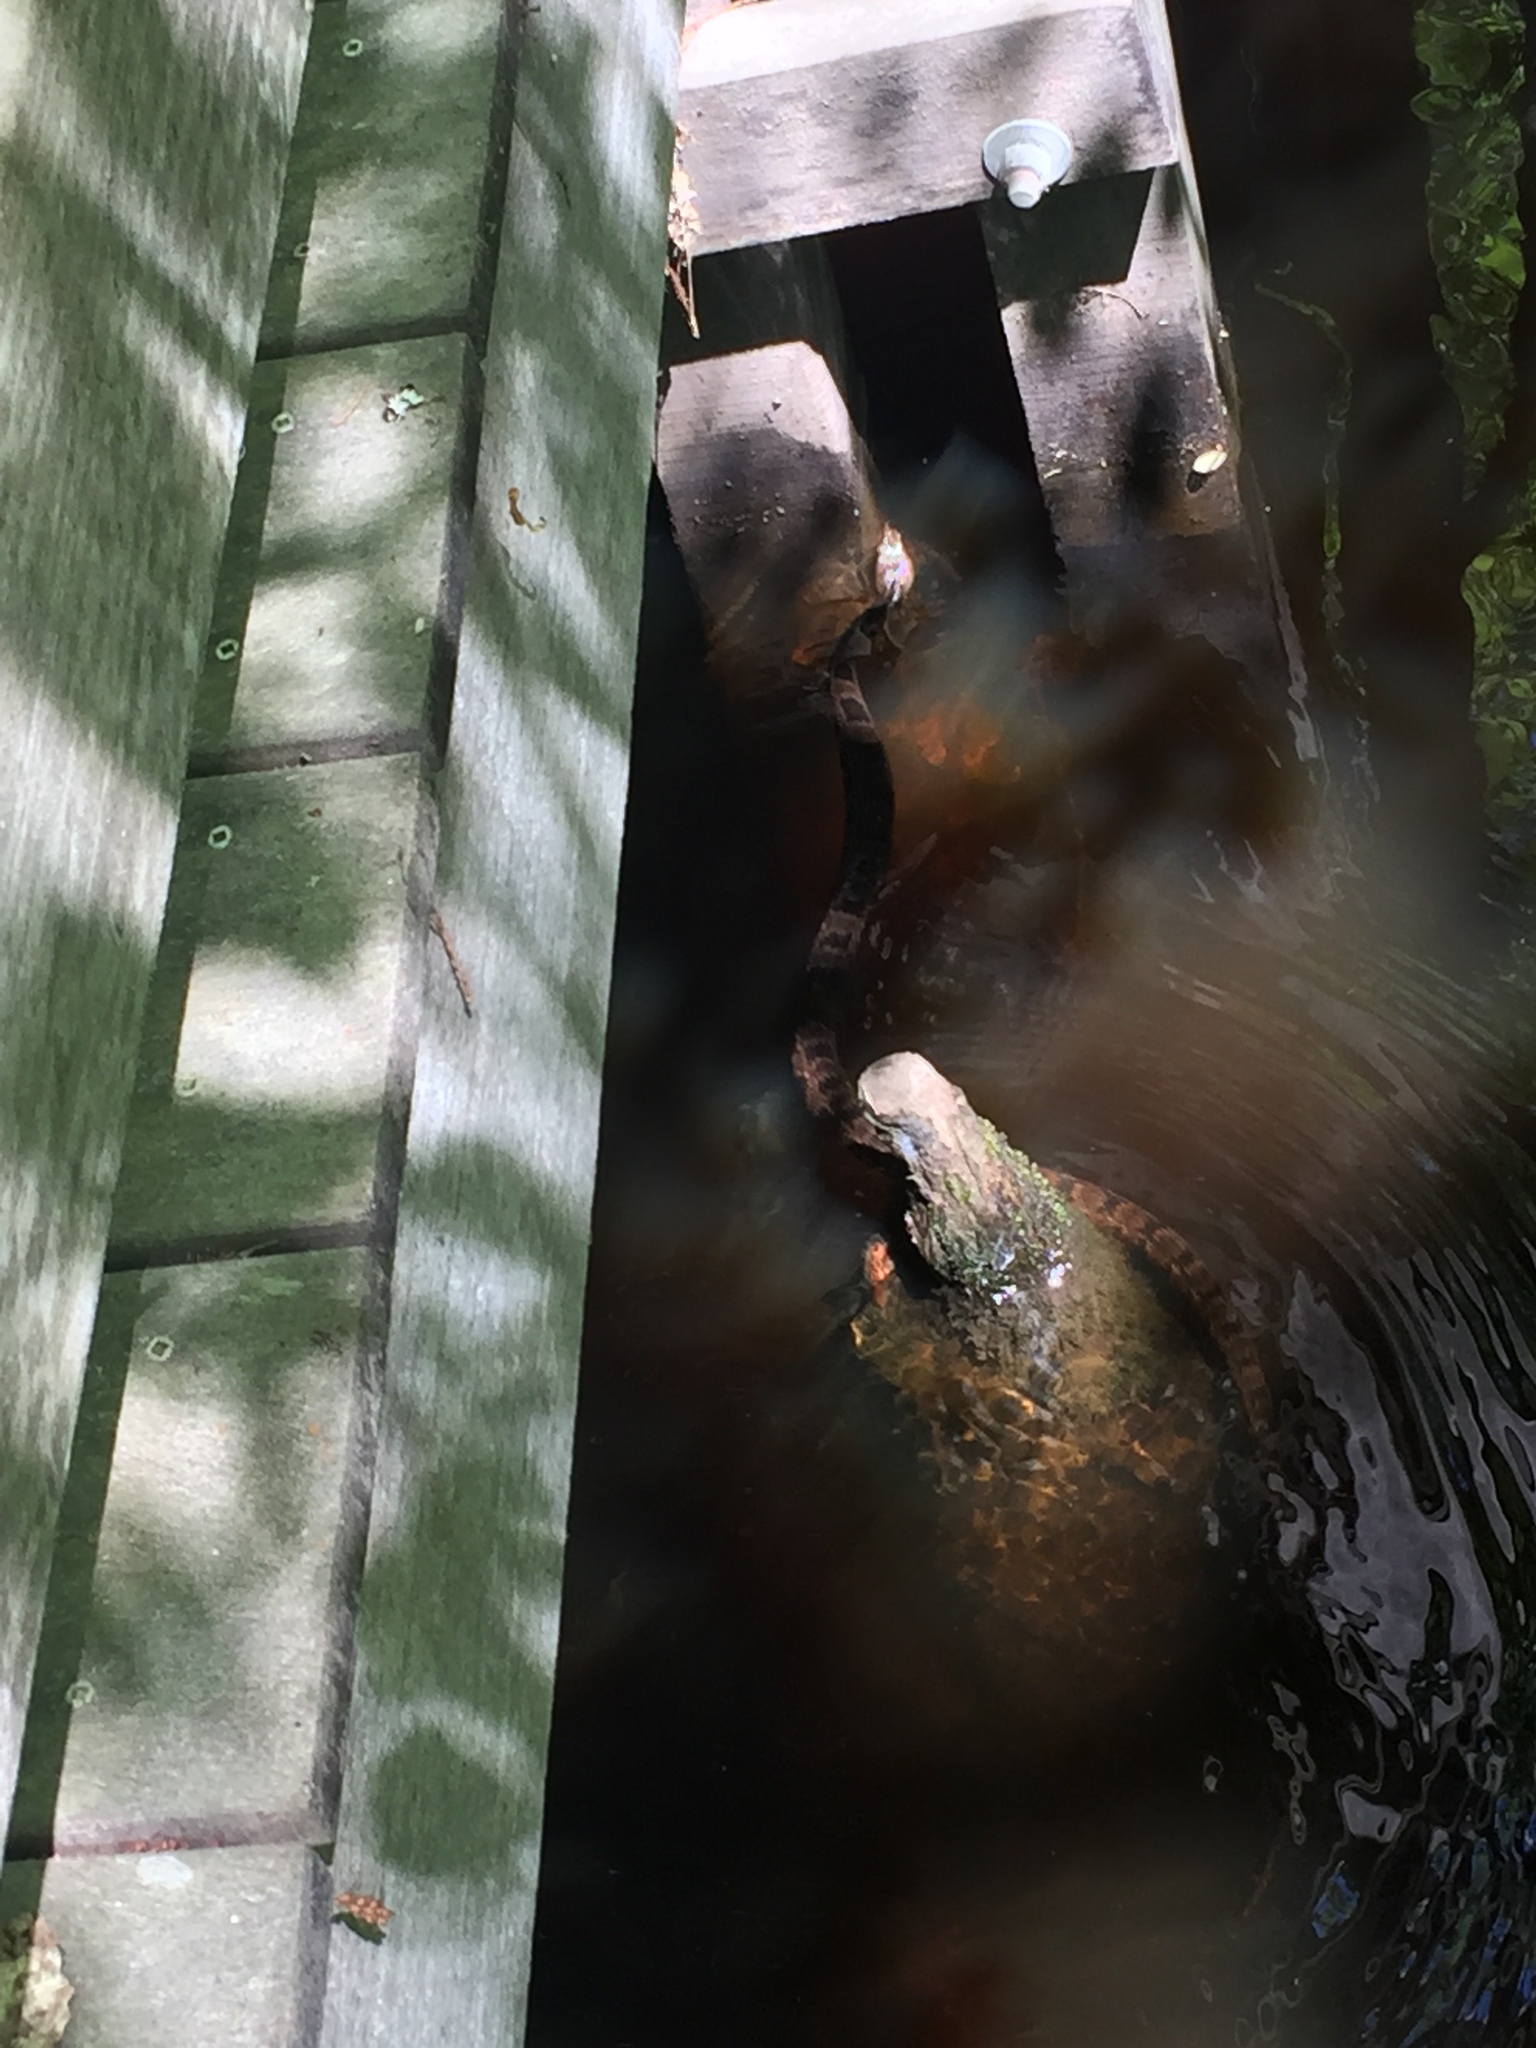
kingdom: Animalia
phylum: Chordata
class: Squamata
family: Colubridae
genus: Nerodia
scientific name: Nerodia taxispilota
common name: Brown water snake
